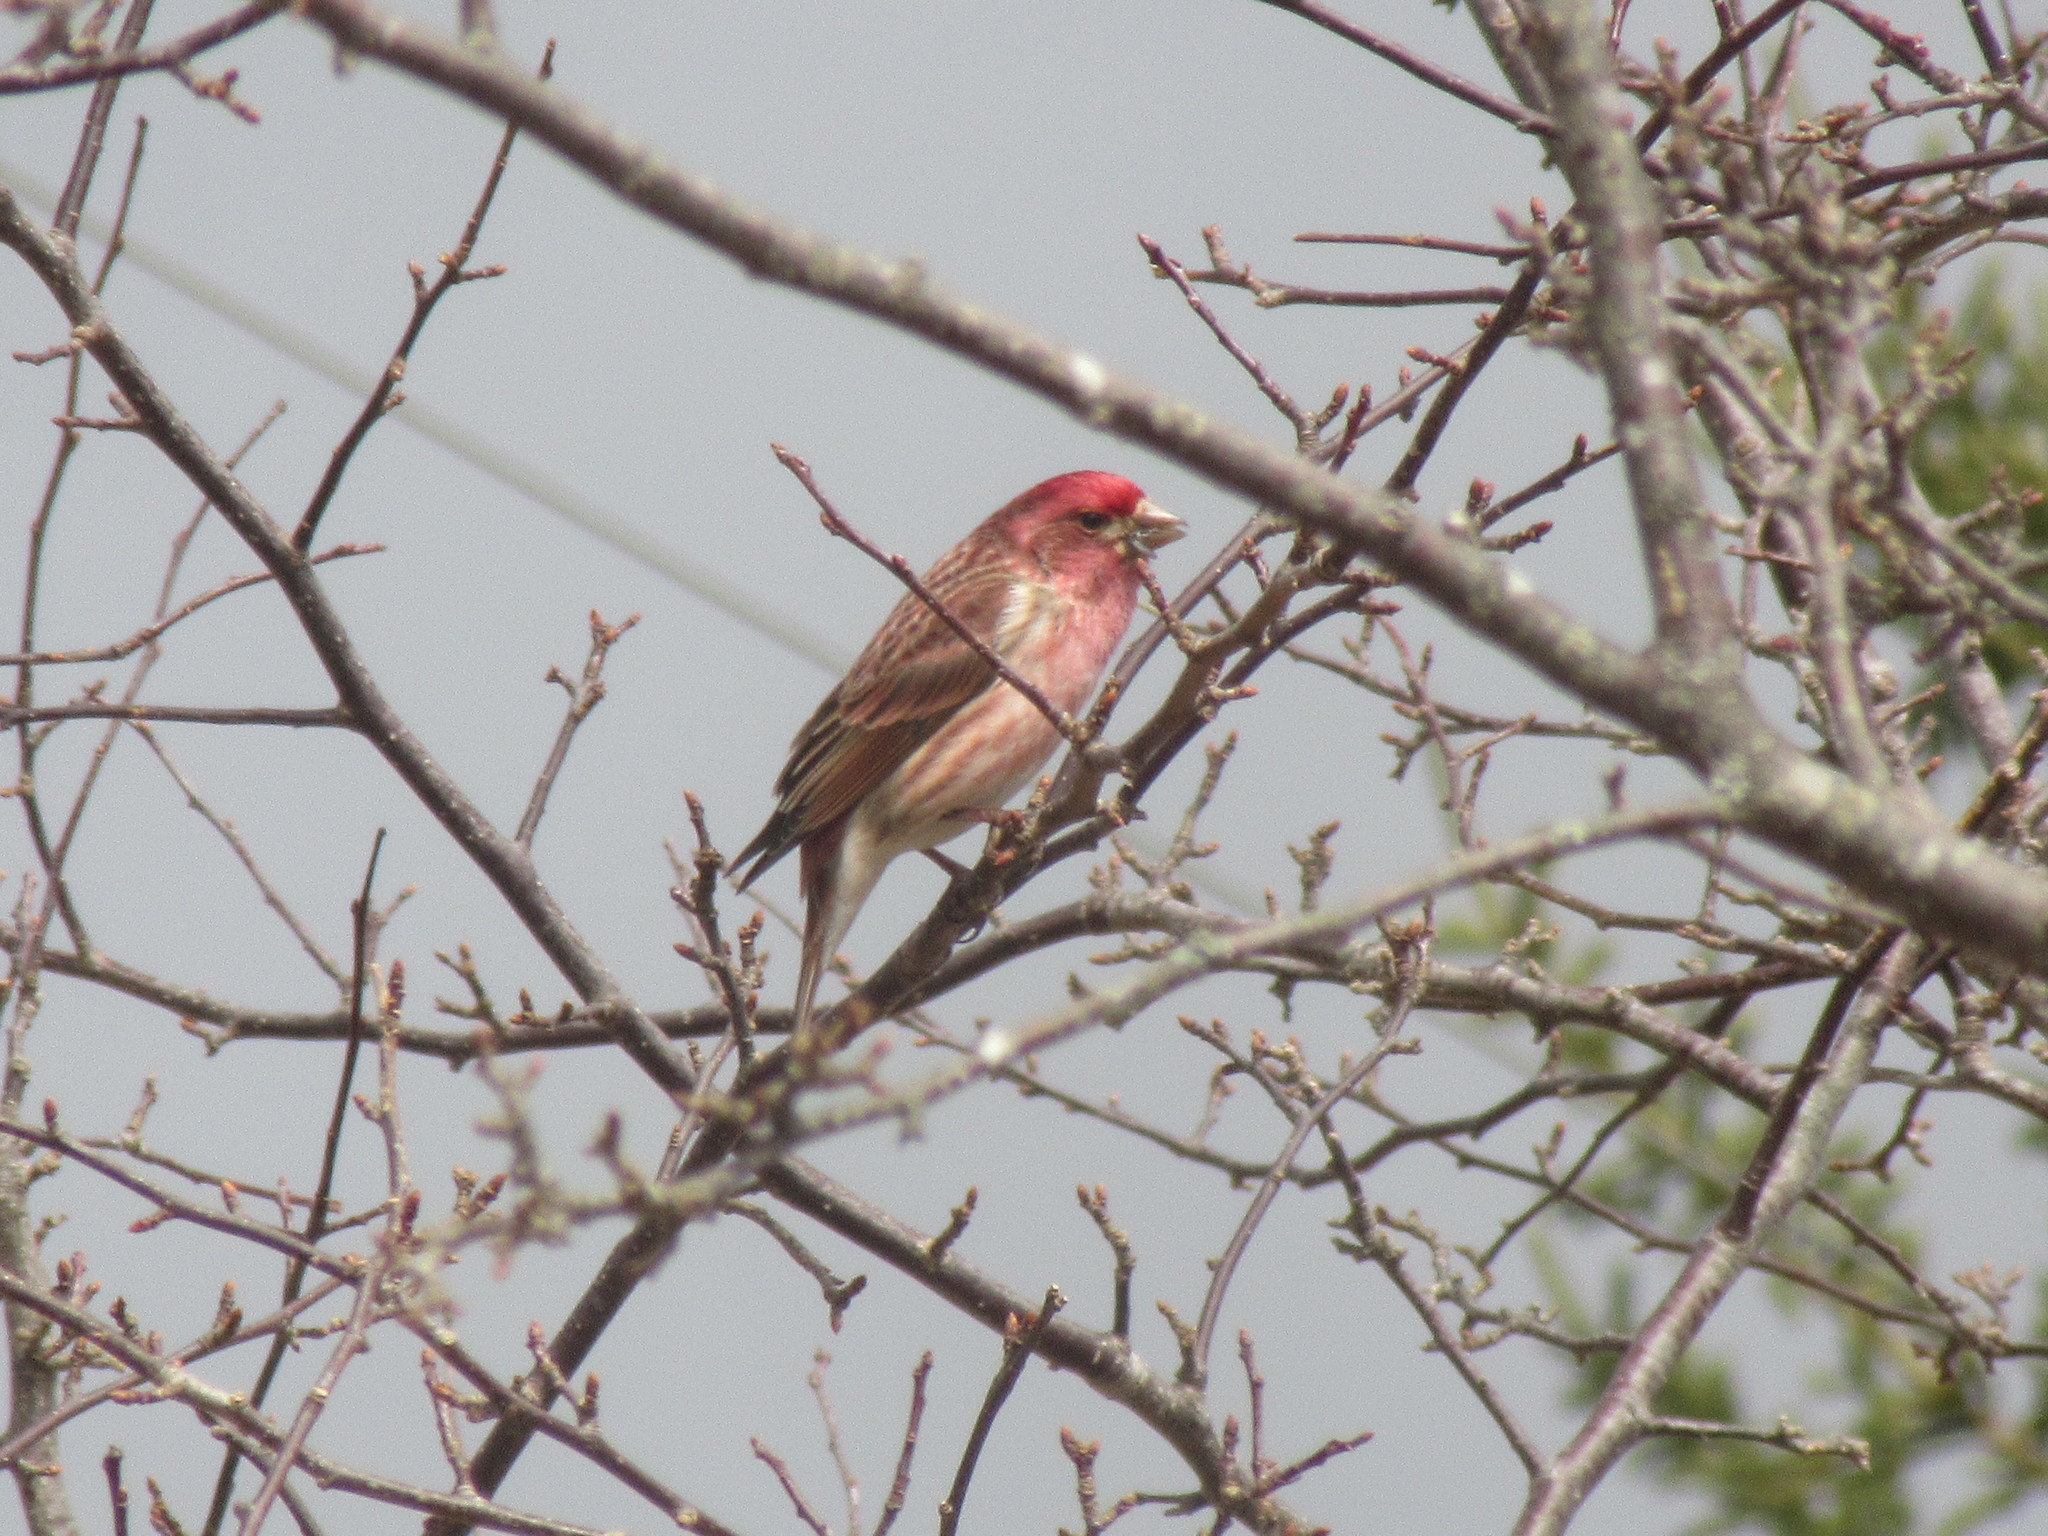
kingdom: Animalia
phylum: Chordata
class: Aves
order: Passeriformes
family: Fringillidae
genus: Haemorhous
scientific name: Haemorhous purpureus
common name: Purple finch
